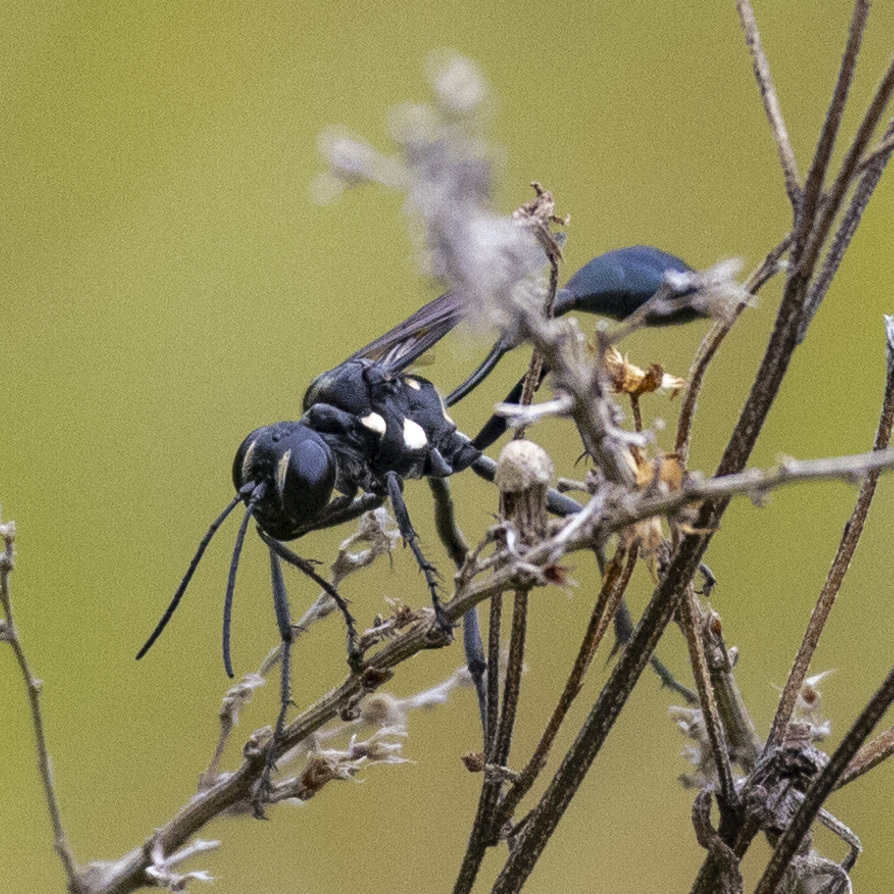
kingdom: Animalia
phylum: Arthropoda
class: Insecta
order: Hymenoptera
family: Sphecidae
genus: Eremnophila
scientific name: Eremnophila aureonotata
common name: Gold-marked thread-waisted wasp
